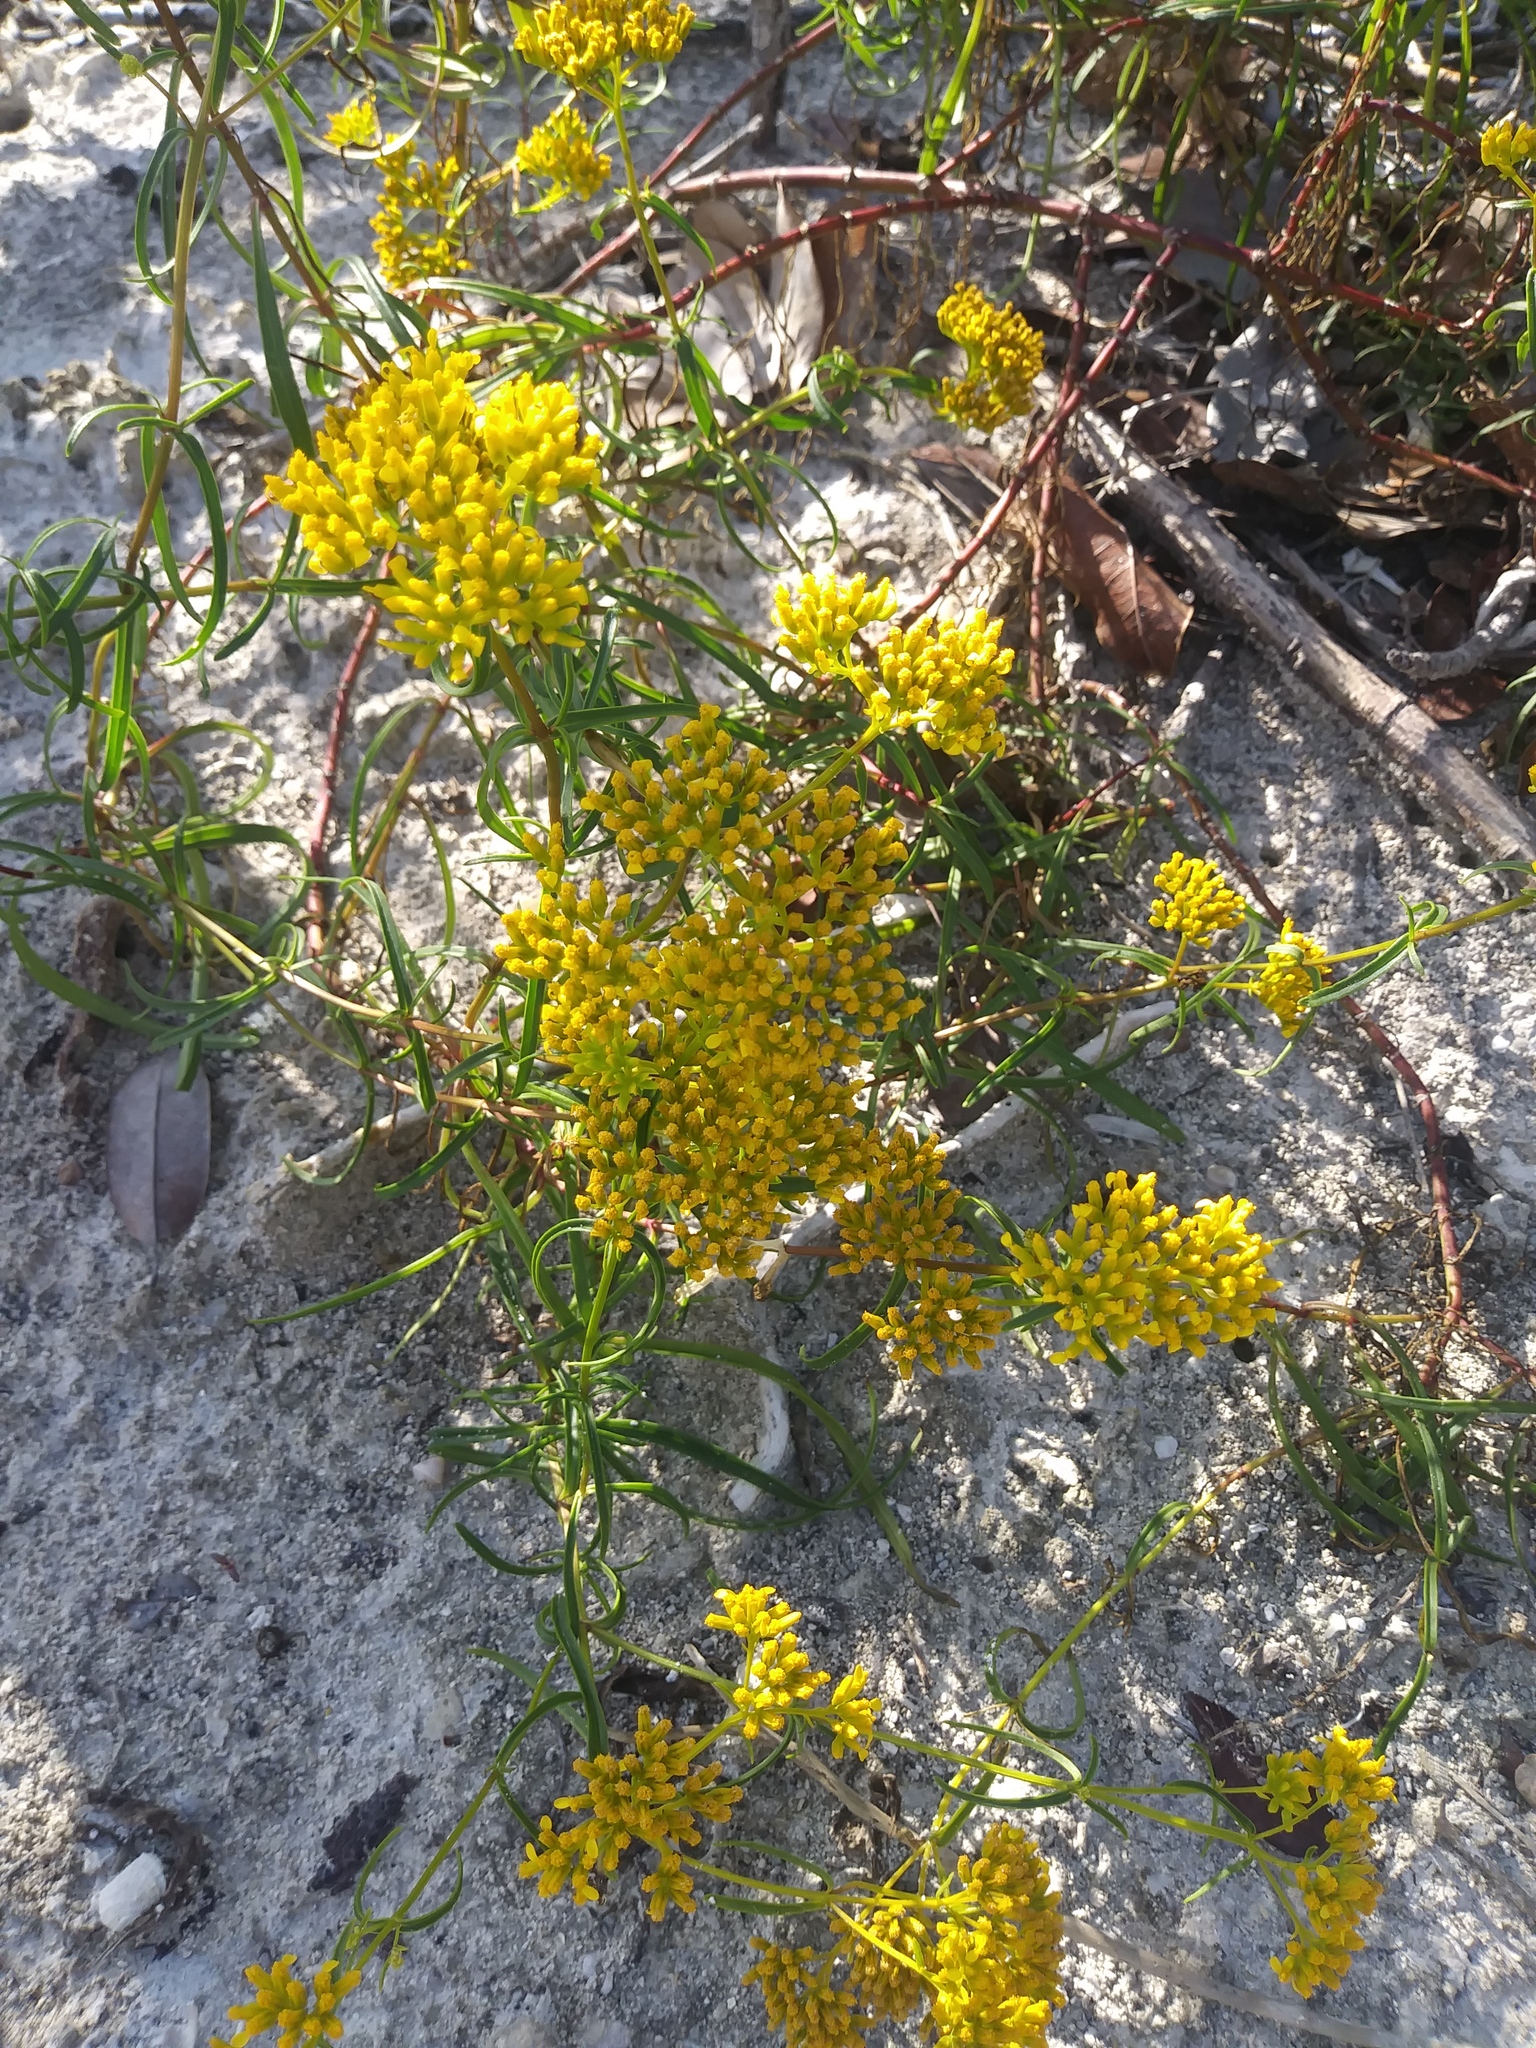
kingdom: Plantae
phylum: Tracheophyta
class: Magnoliopsida
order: Asterales
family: Asteraceae
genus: Flaveria
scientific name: Flaveria linearis
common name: Yellowtop
